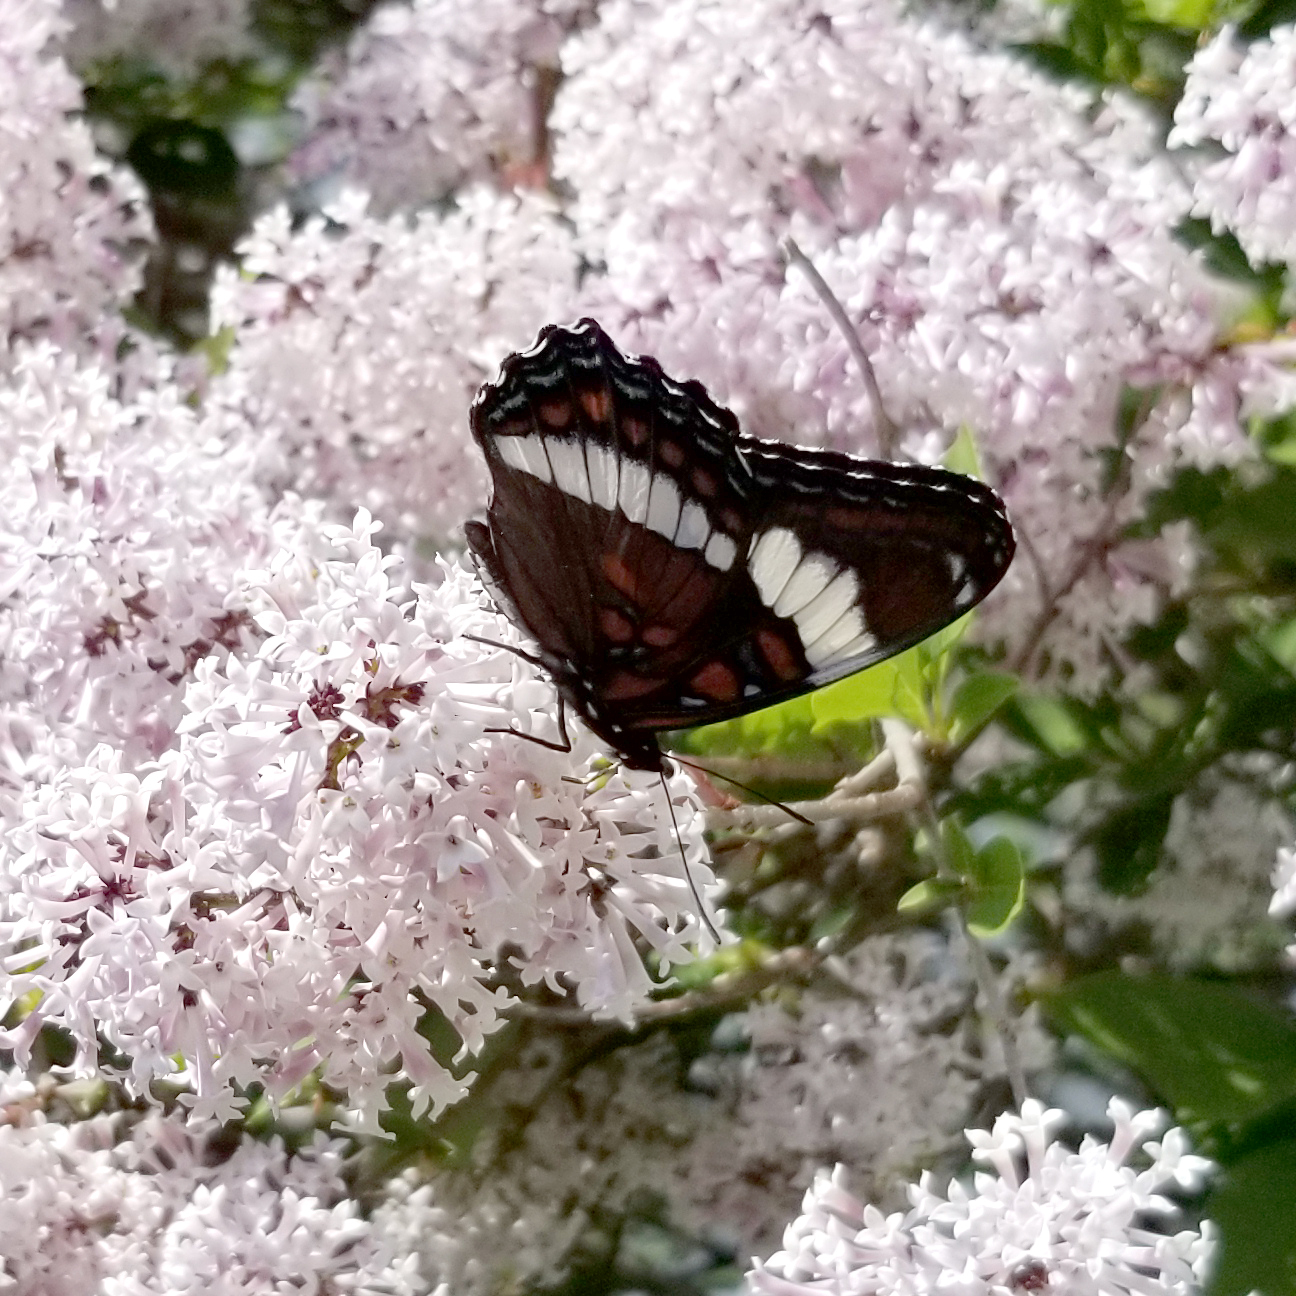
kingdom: Animalia
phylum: Arthropoda
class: Insecta
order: Lepidoptera
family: Nymphalidae
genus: Limenitis
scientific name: Limenitis arthemis
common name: Red-spotted admiral
